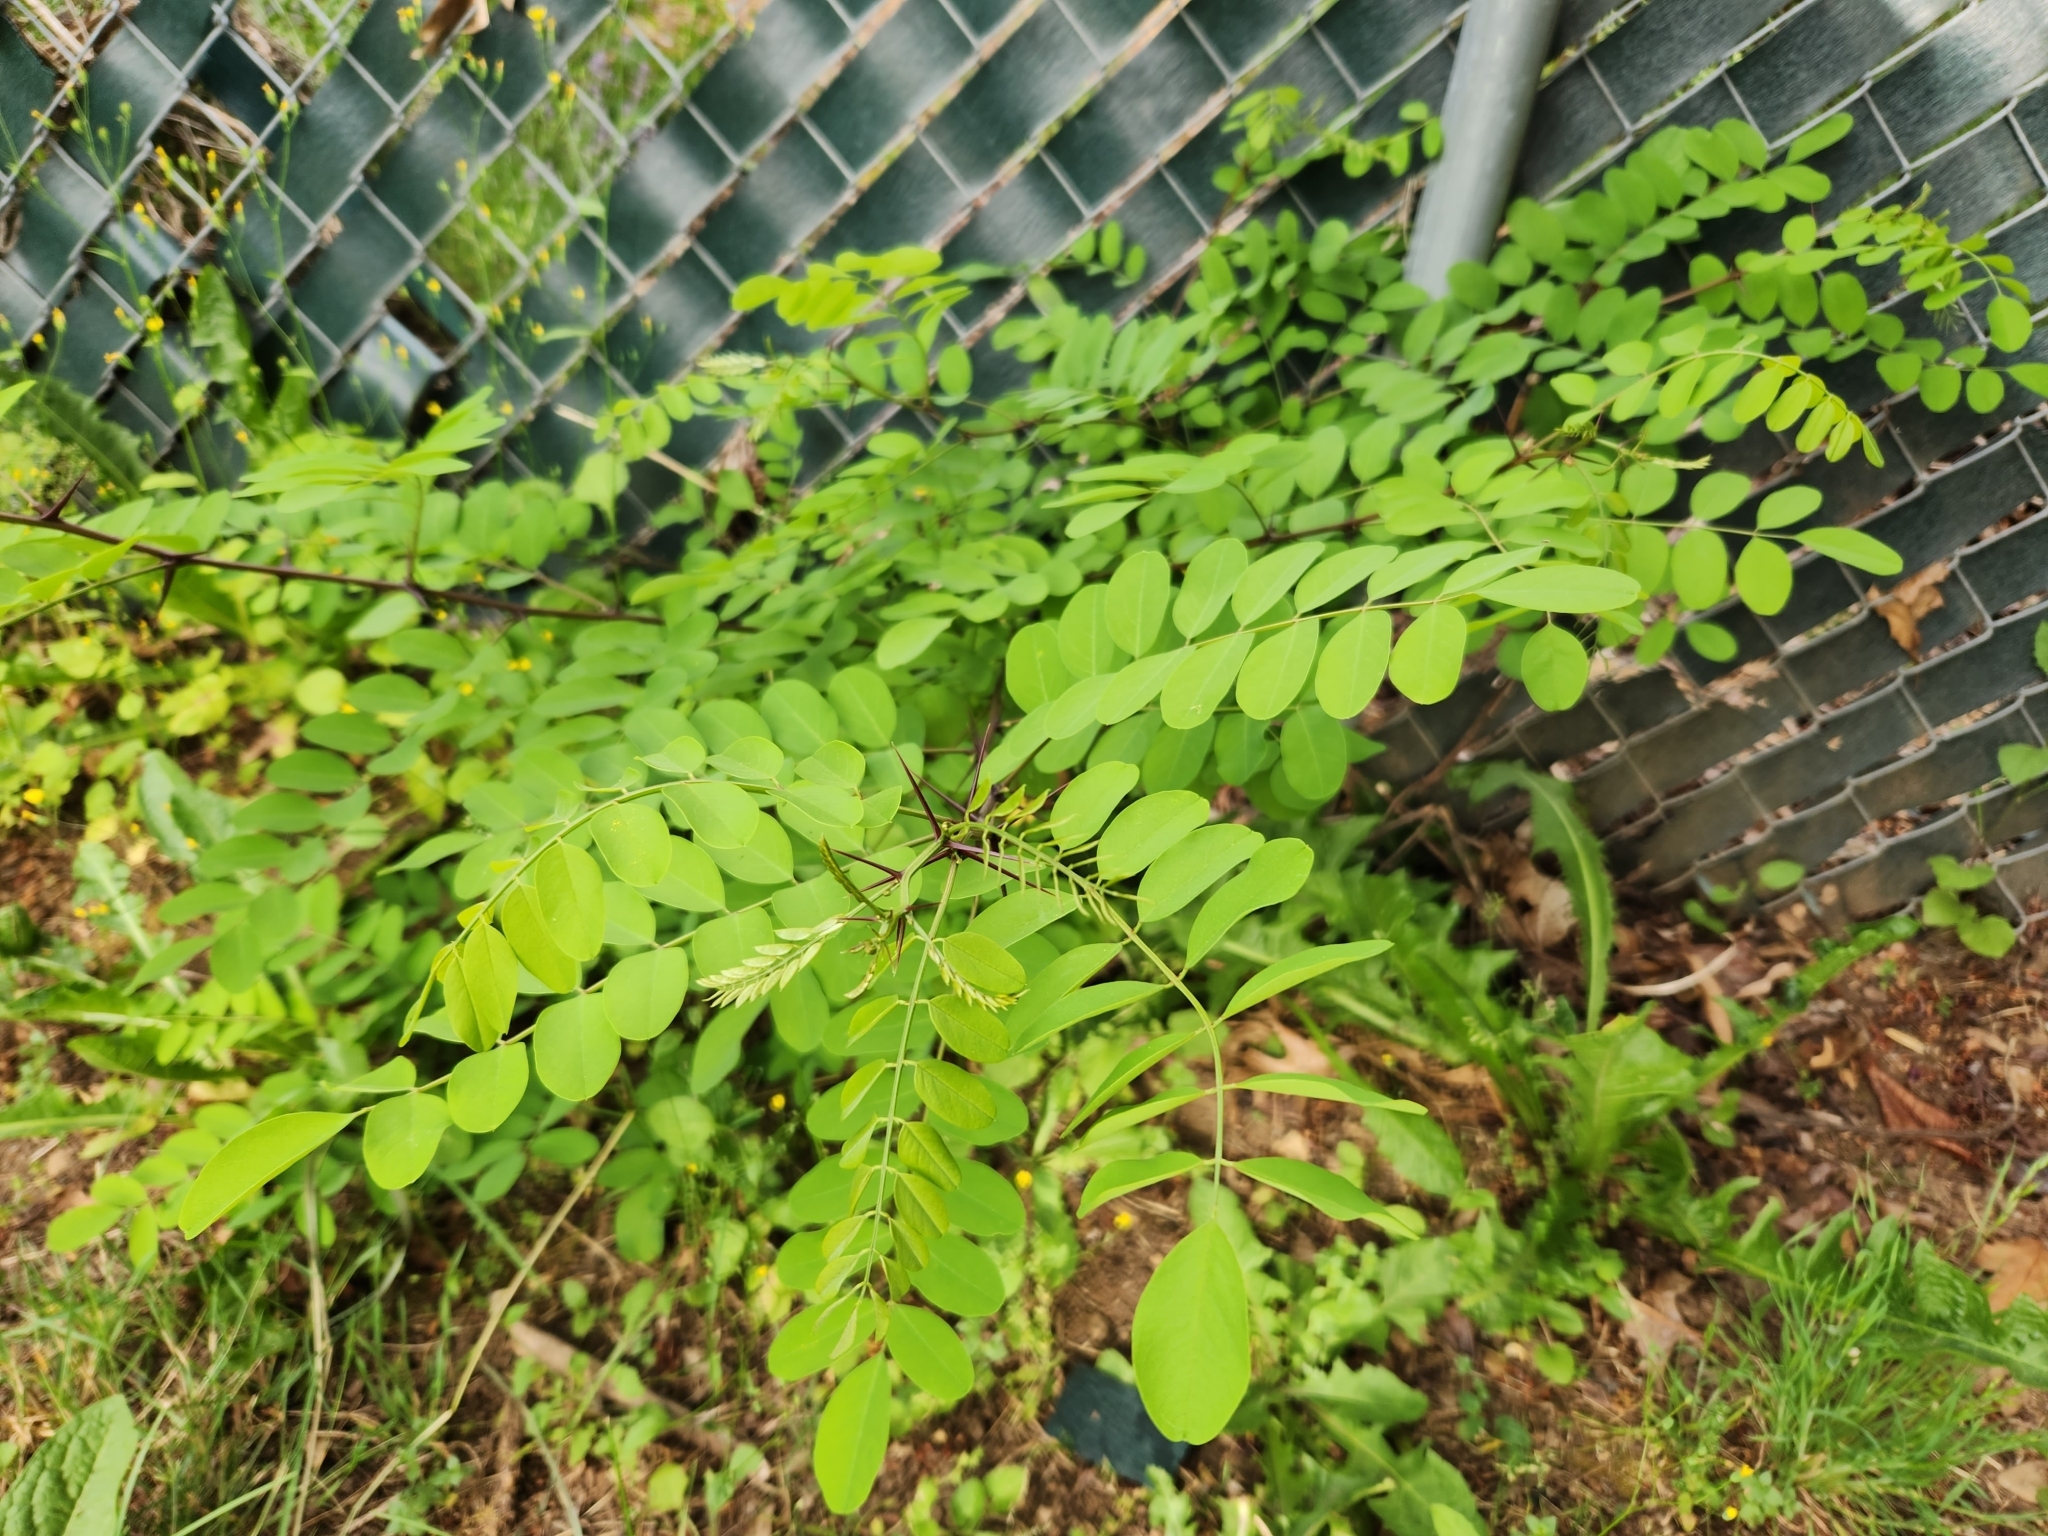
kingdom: Plantae
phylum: Tracheophyta
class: Magnoliopsida
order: Fabales
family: Fabaceae
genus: Robinia
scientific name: Robinia pseudoacacia
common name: Black locust
